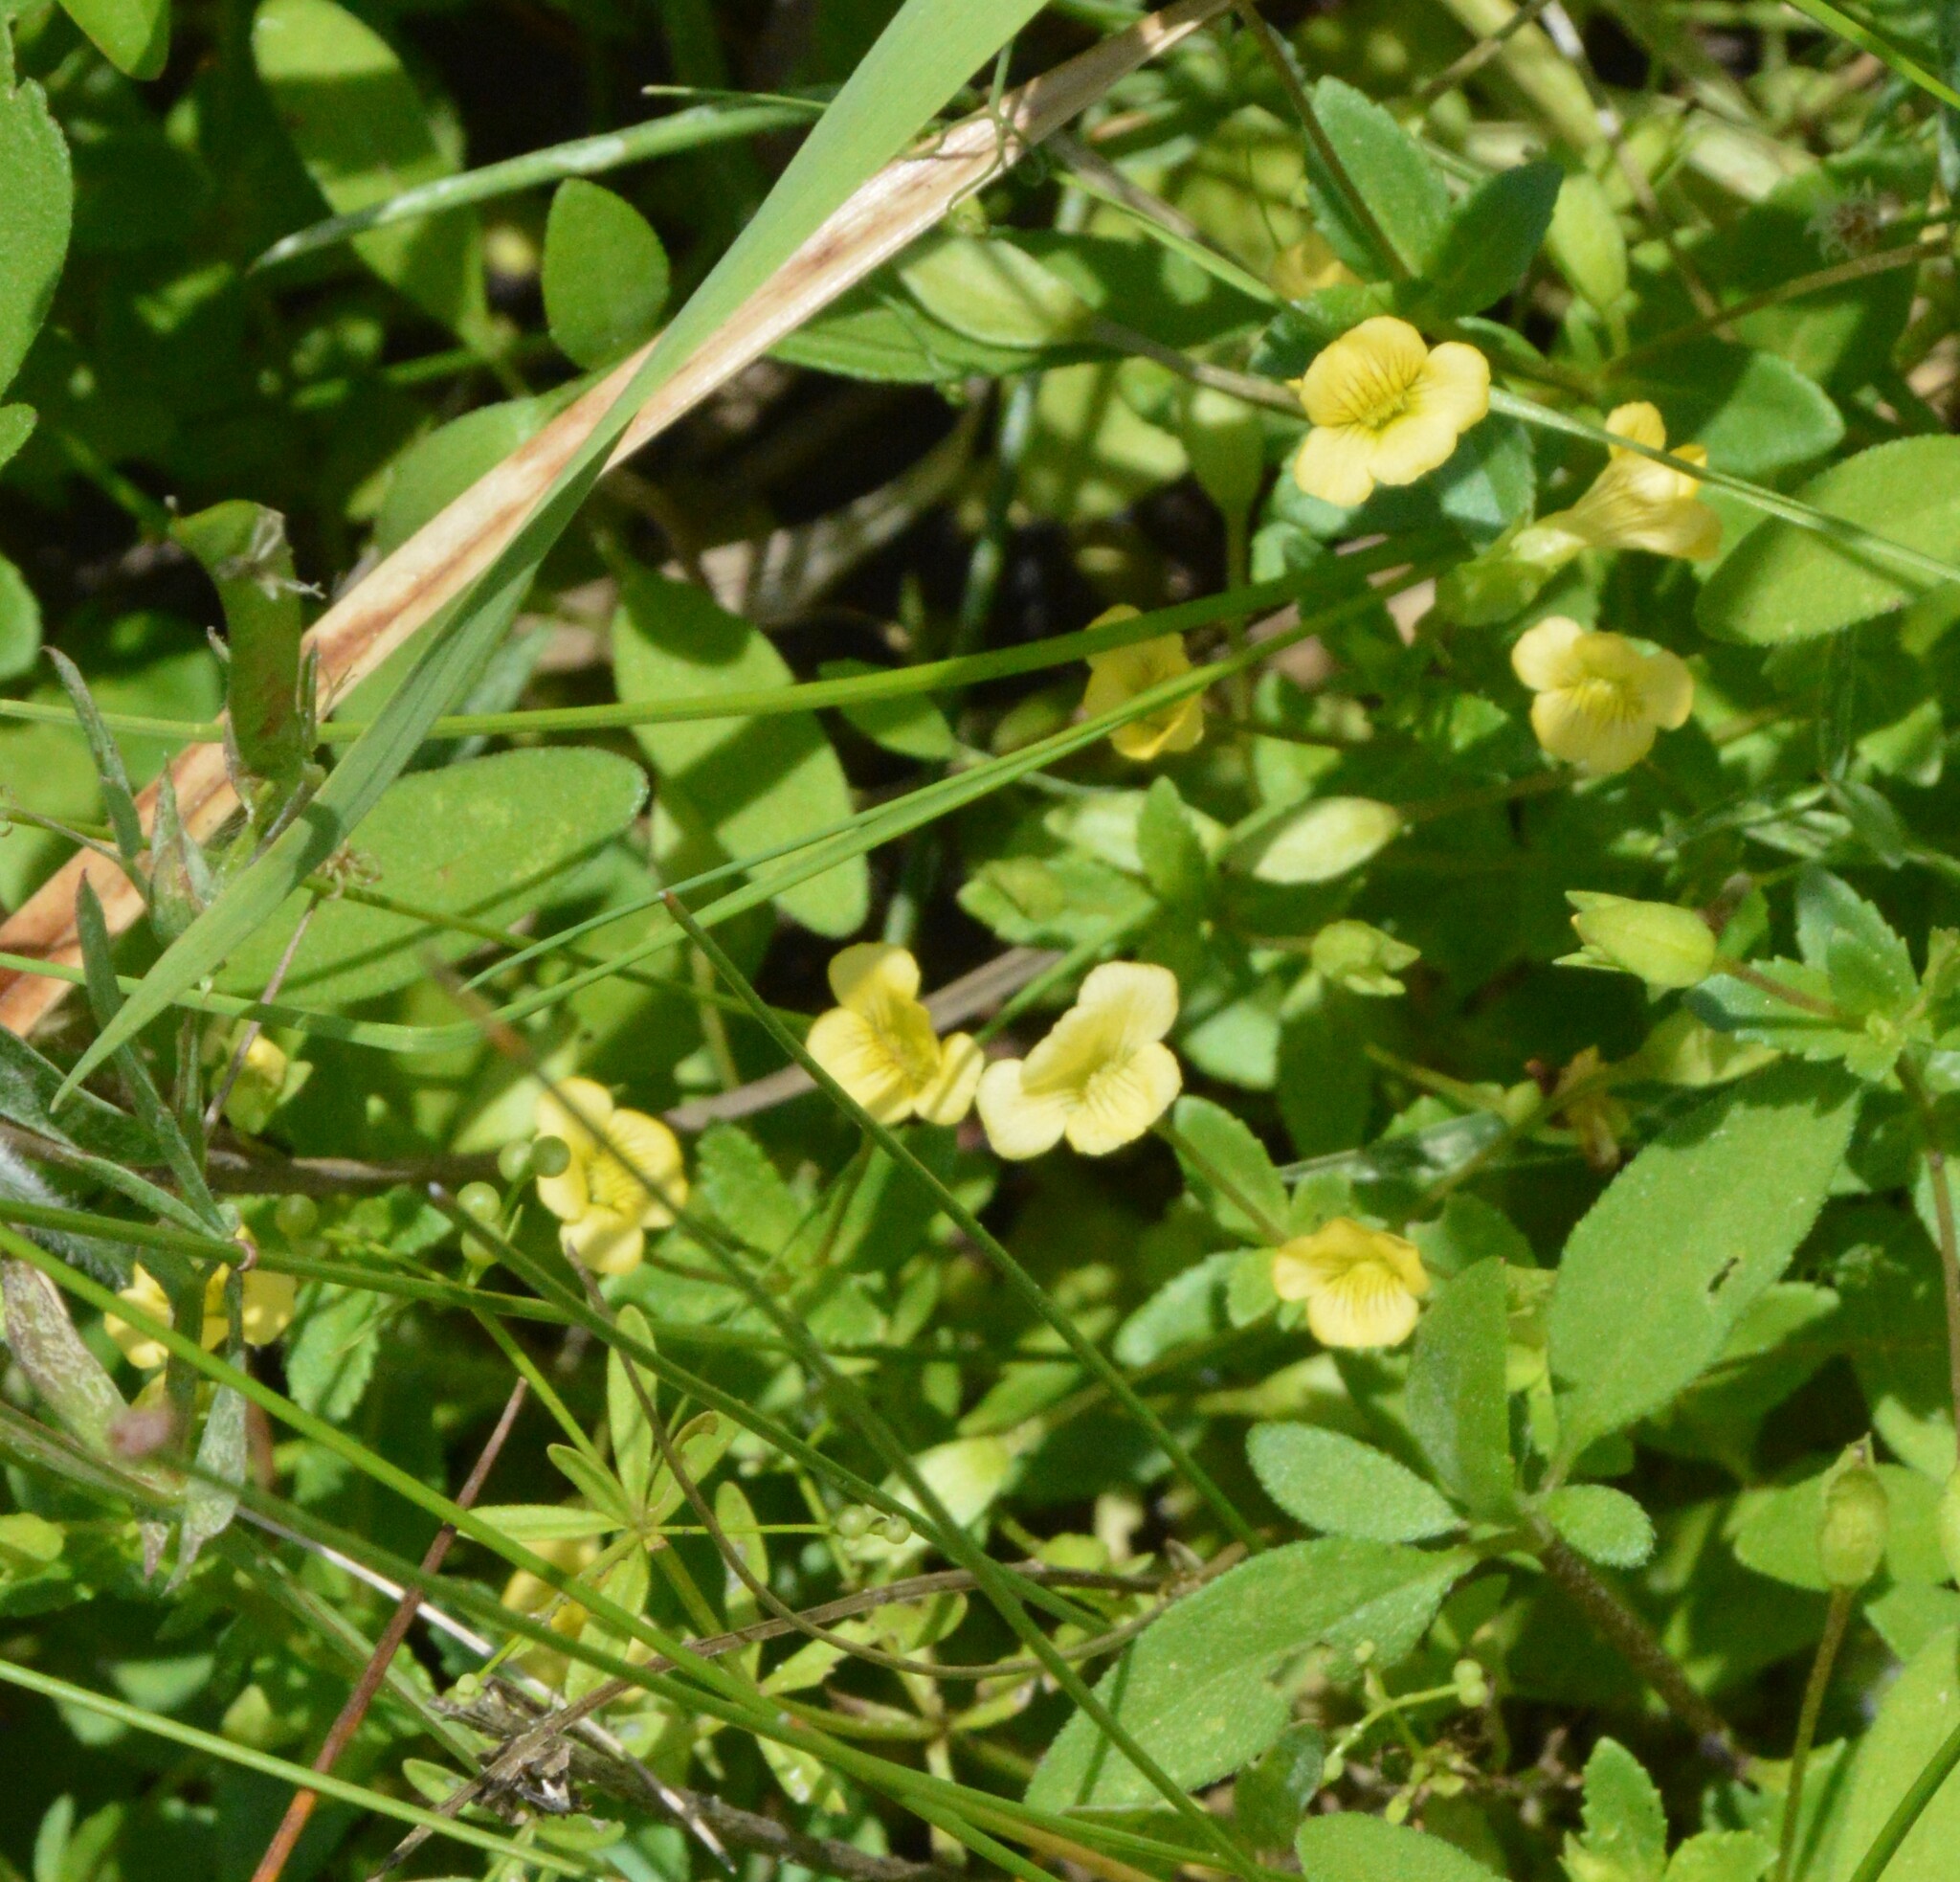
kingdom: Plantae
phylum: Tracheophyta
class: Magnoliopsida
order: Lamiales
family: Plantaginaceae
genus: Mecardonia
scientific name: Mecardonia procumbens
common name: Baby jump-up
